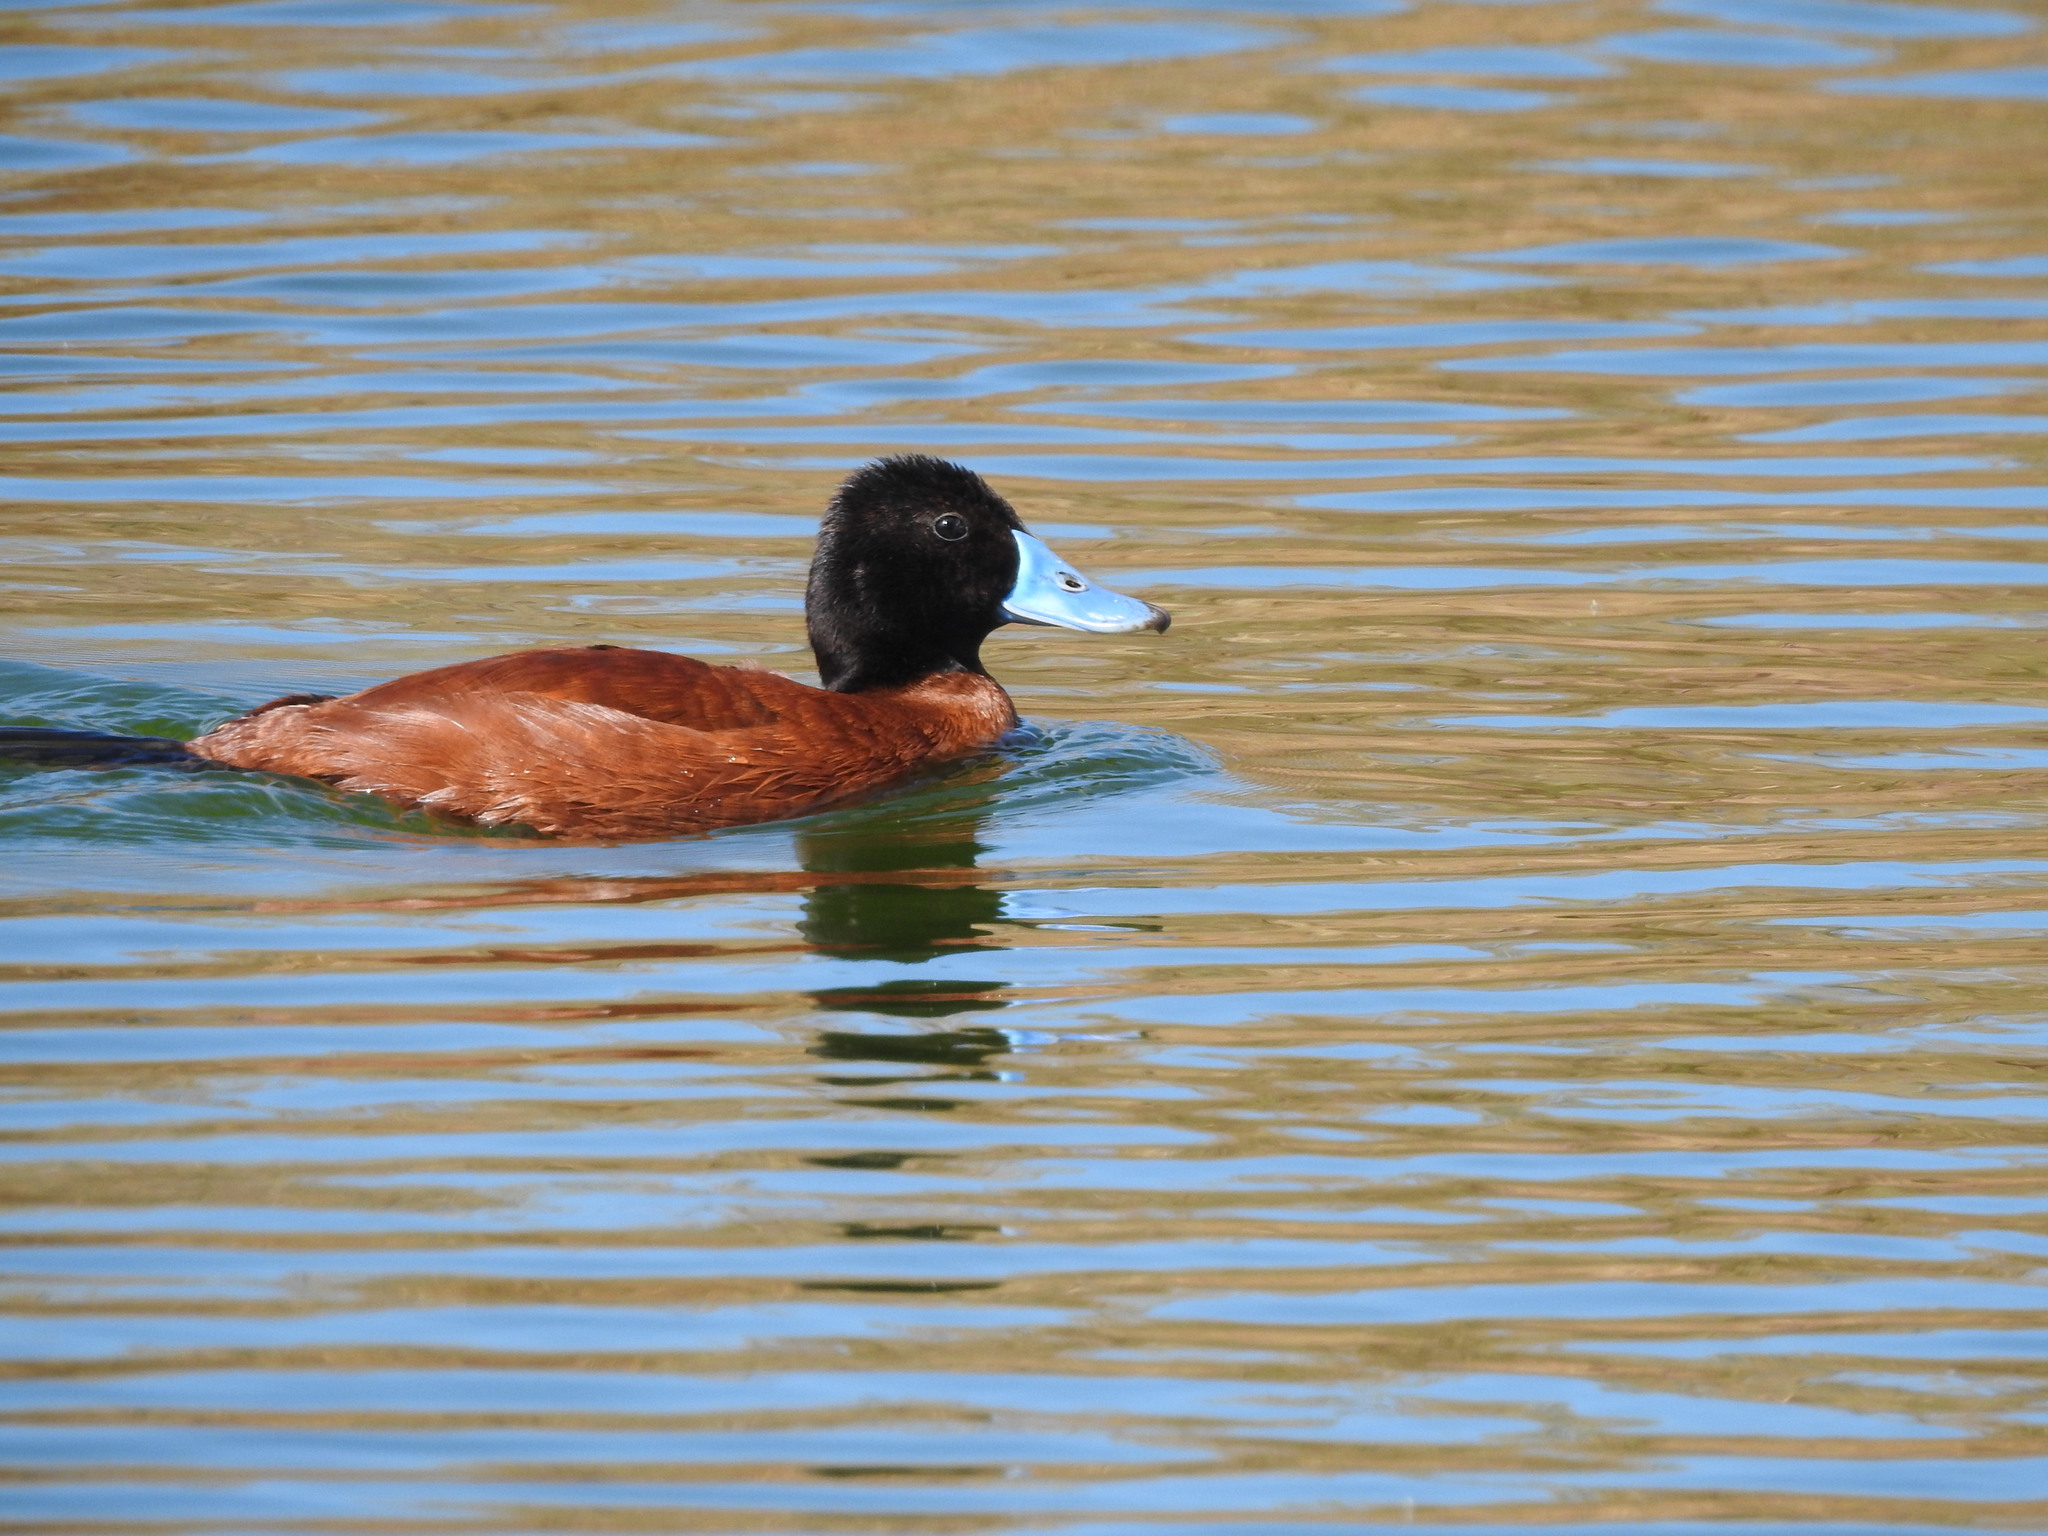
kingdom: Animalia
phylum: Chordata
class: Aves
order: Anseriformes
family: Anatidae
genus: Oxyura
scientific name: Oxyura vittata
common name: Lake duck
